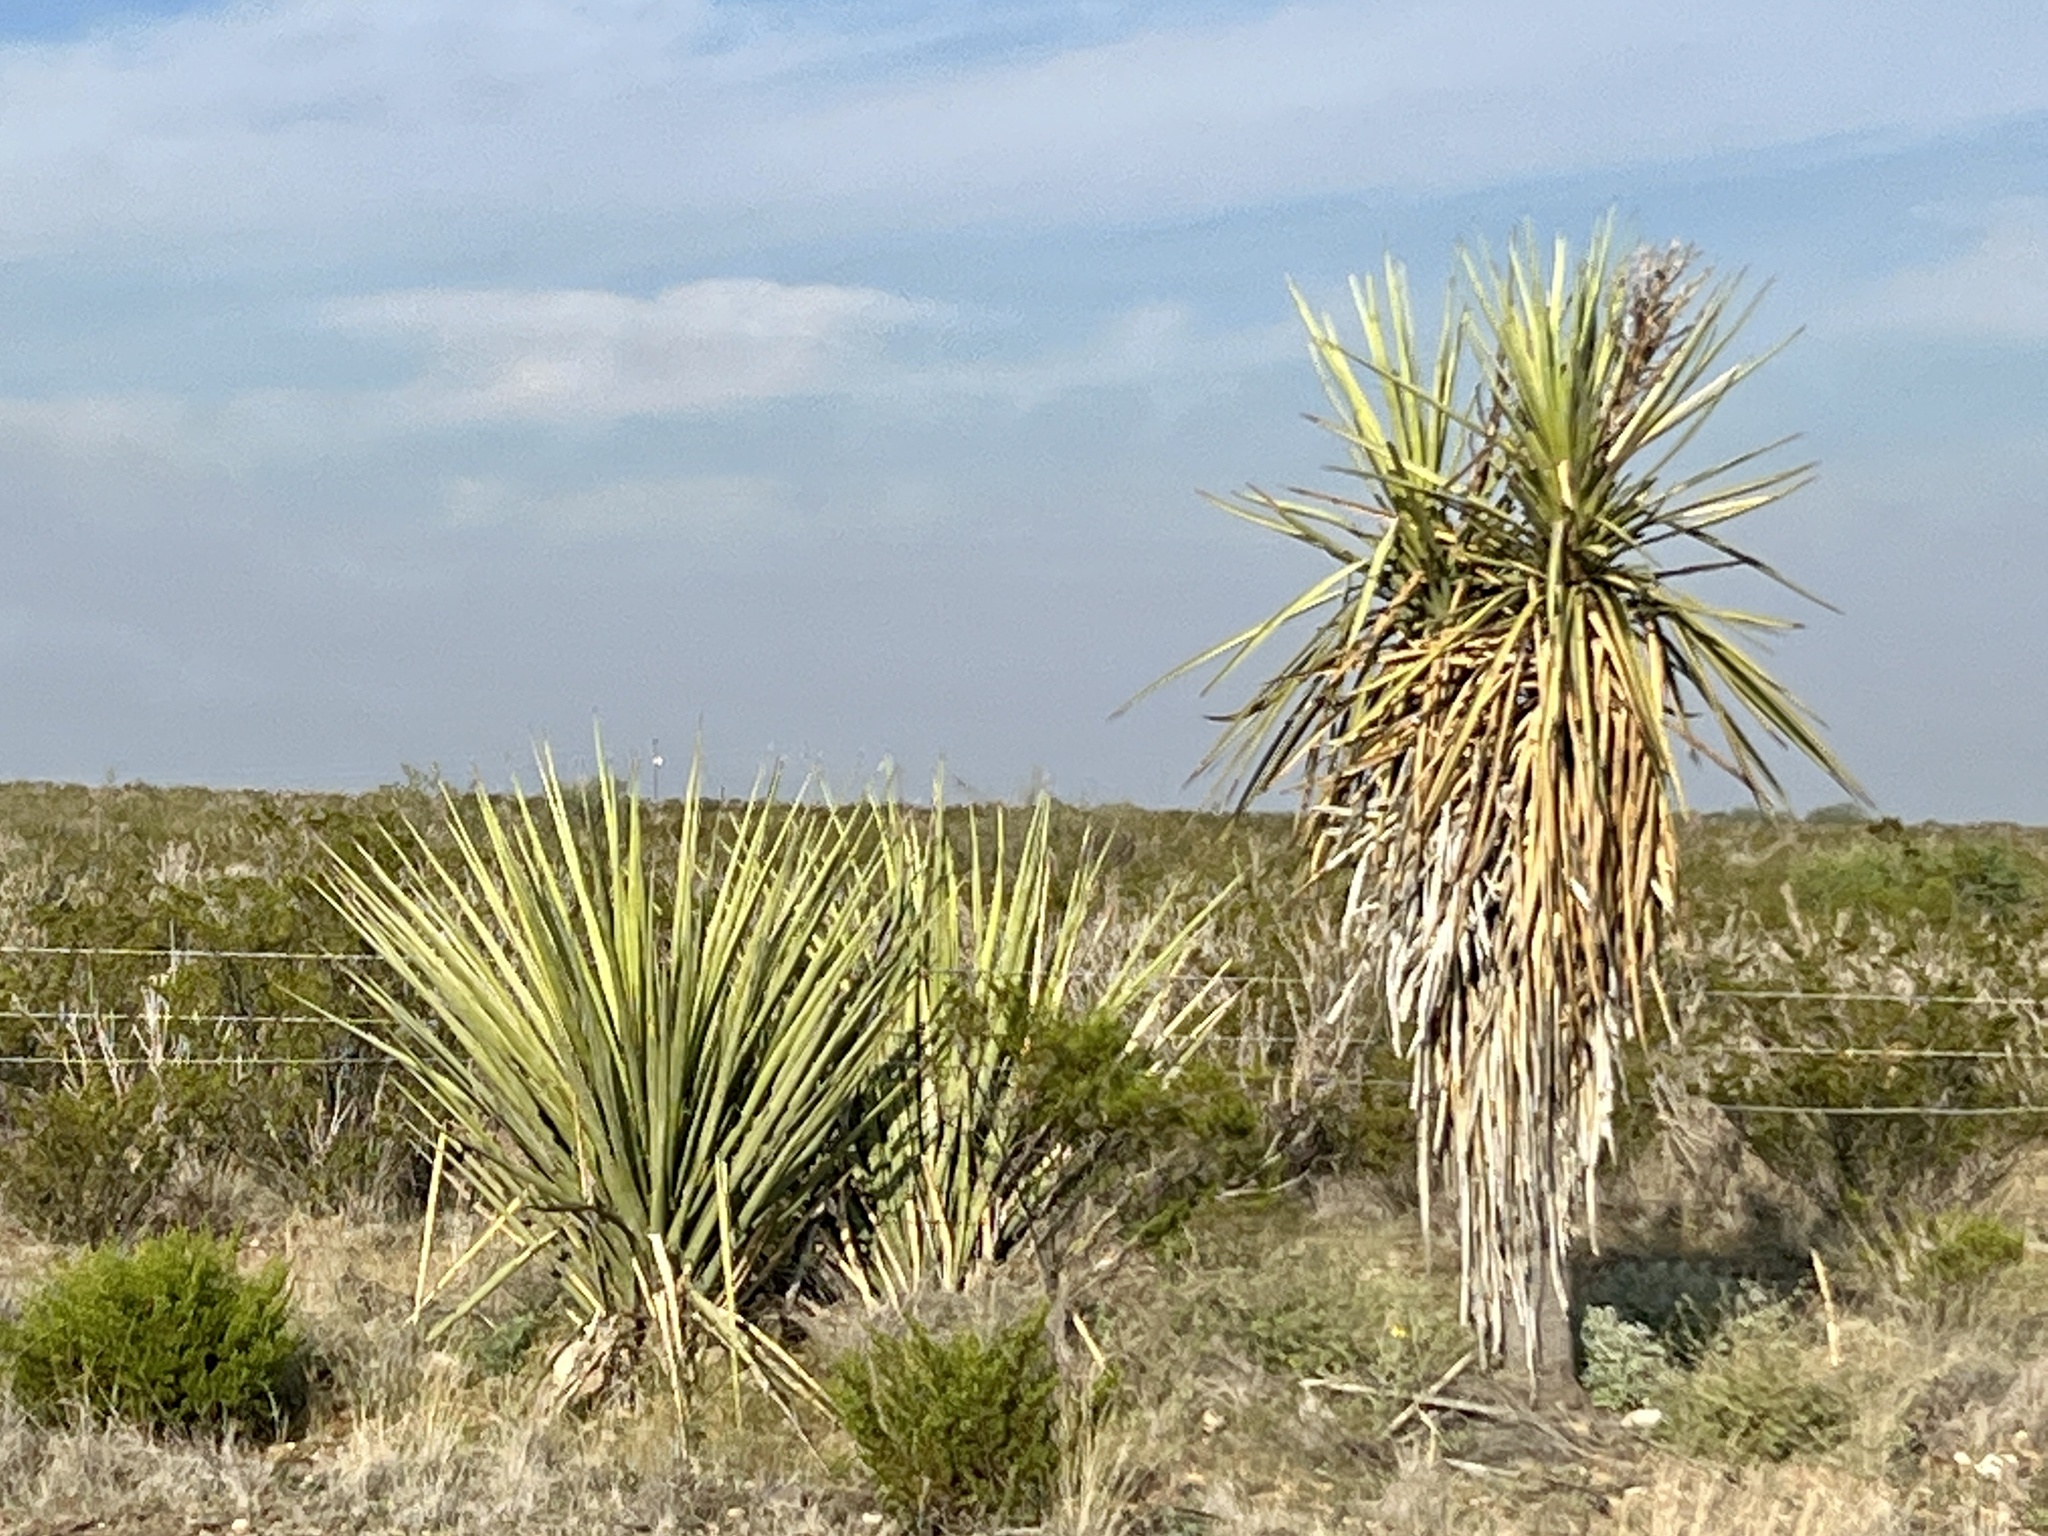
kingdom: Plantae
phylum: Tracheophyta
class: Liliopsida
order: Asparagales
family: Asparagaceae
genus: Yucca
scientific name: Yucca treculiana
